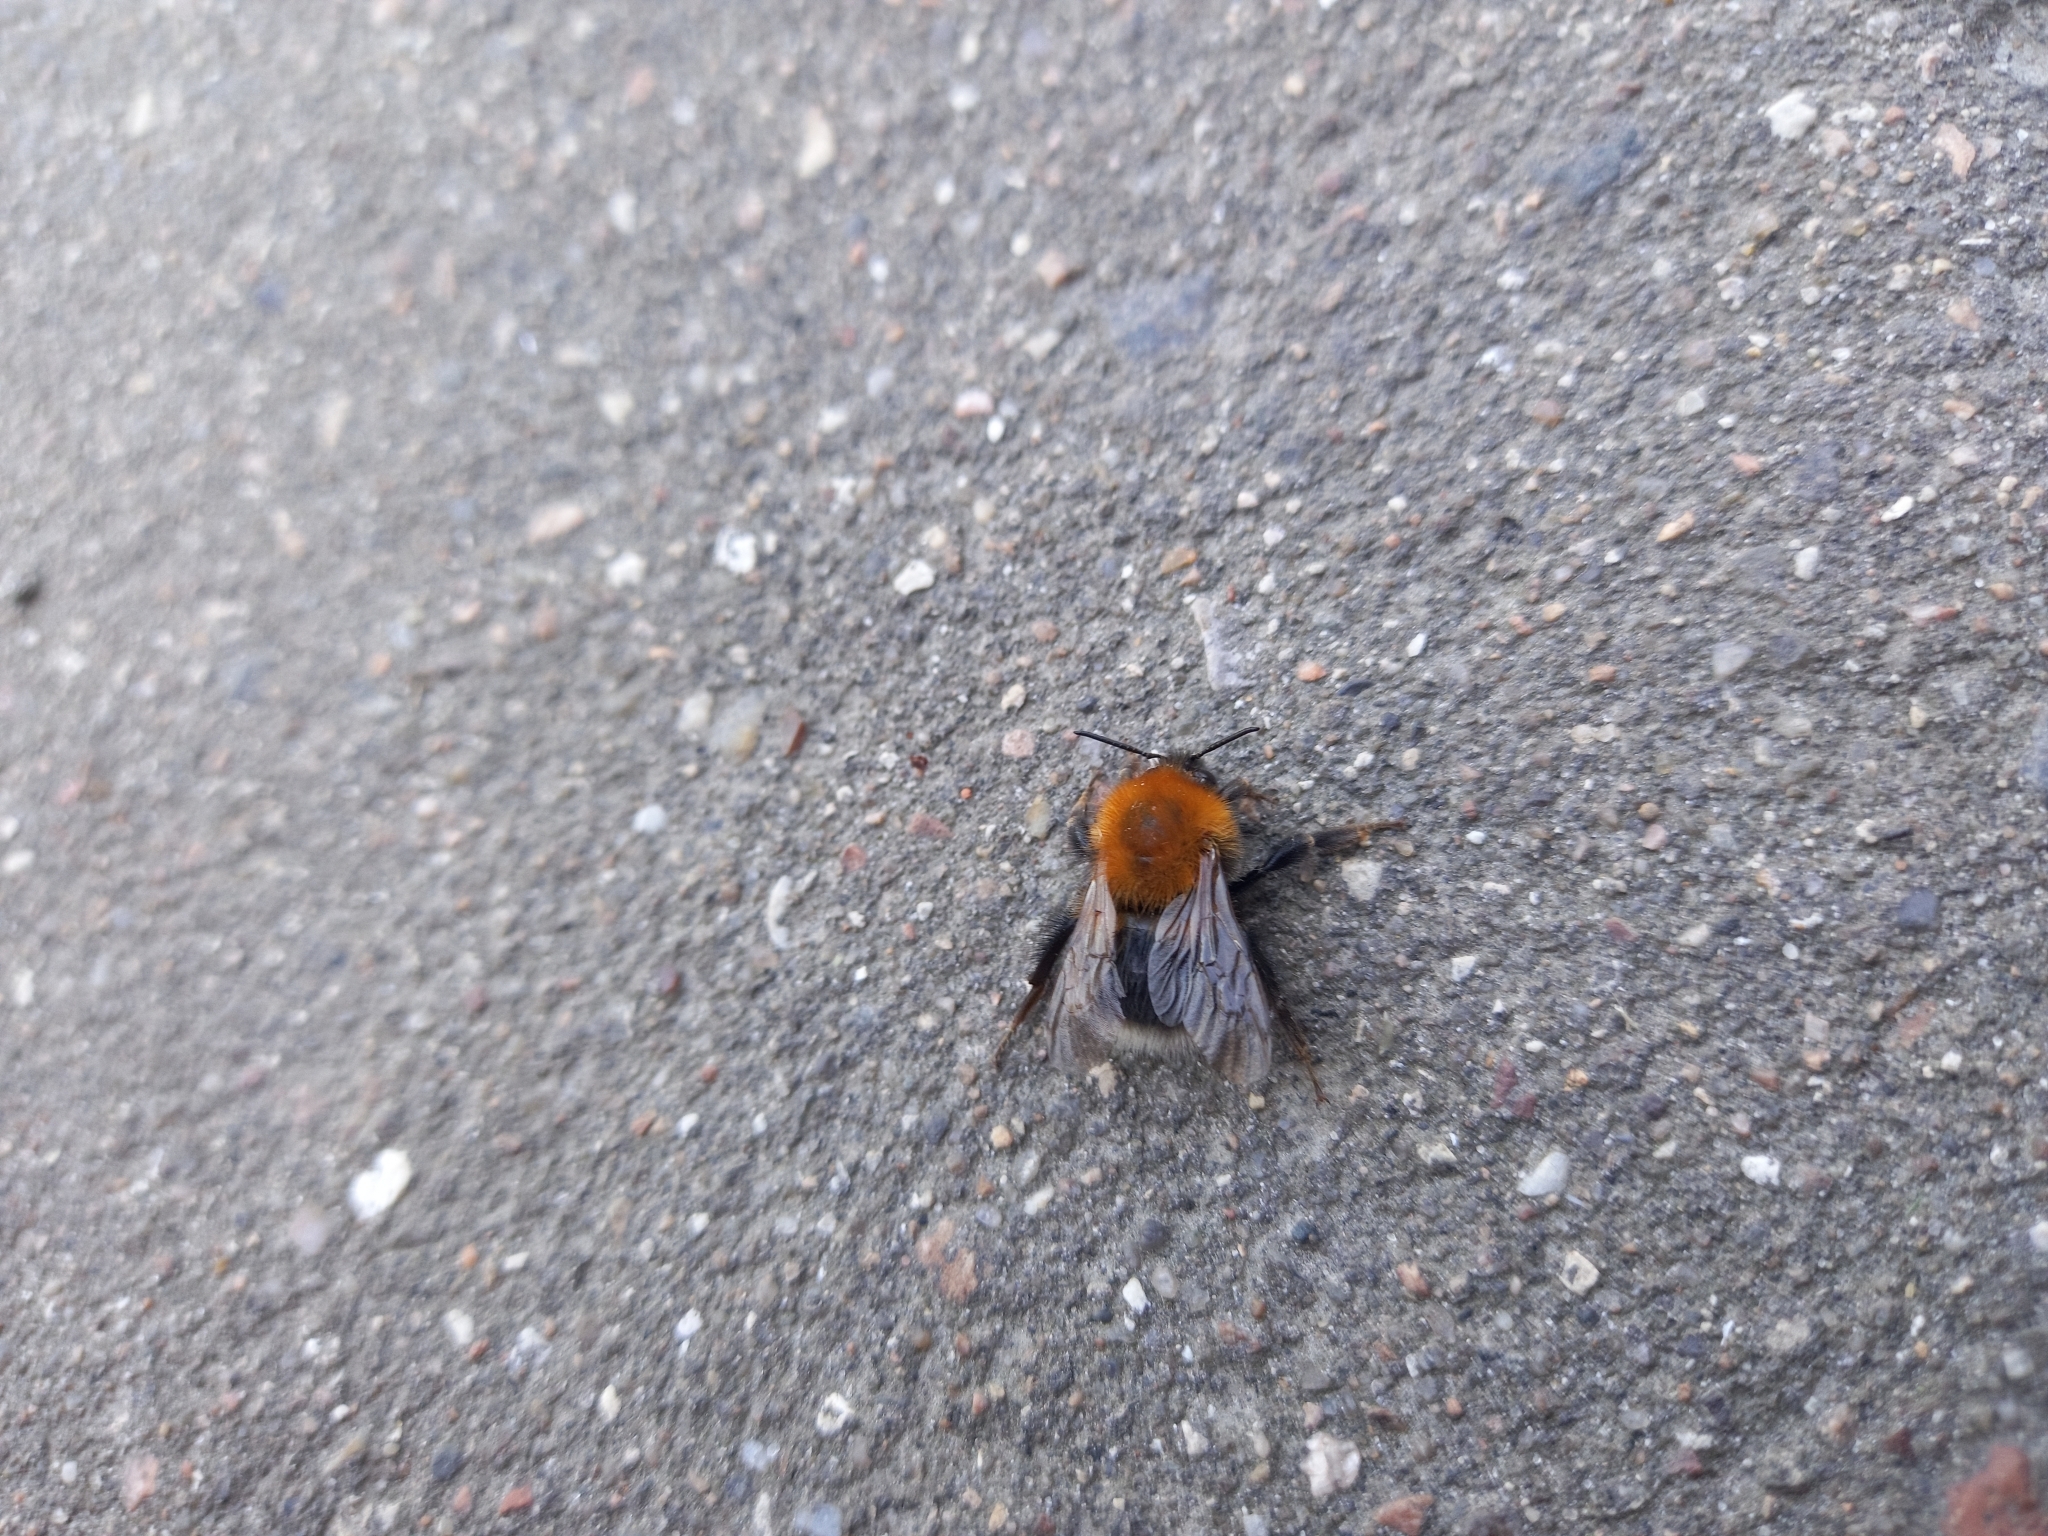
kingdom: Animalia
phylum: Arthropoda
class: Insecta
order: Hymenoptera
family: Apidae
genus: Bombus
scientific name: Bombus hypnorum
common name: New garden bumblebee
